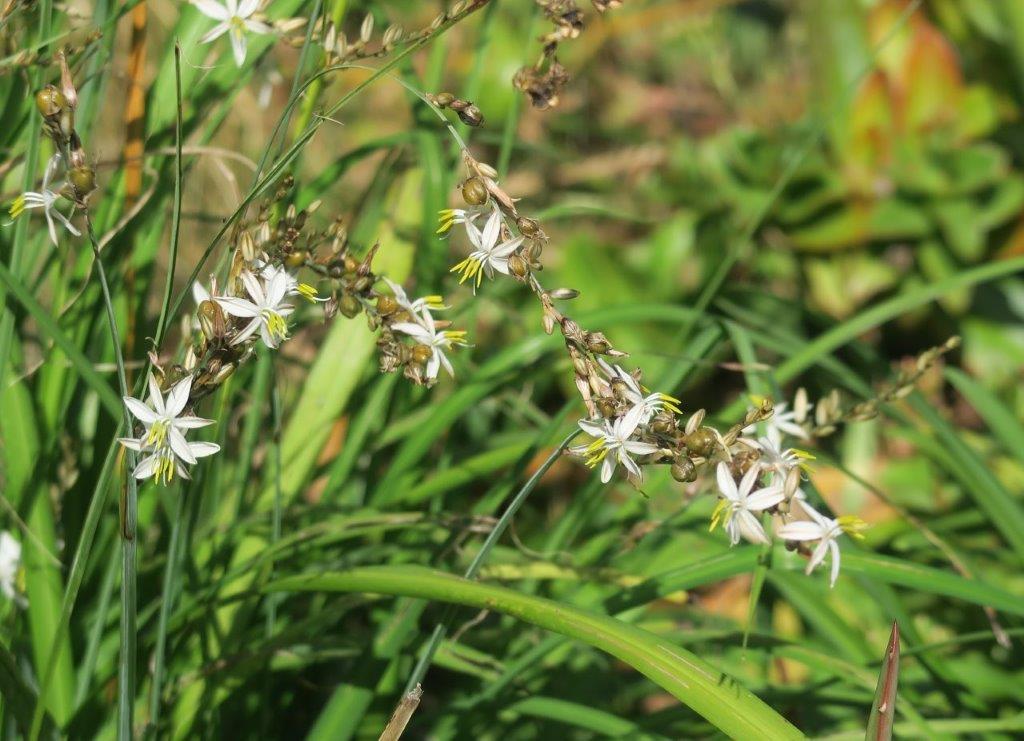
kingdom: Plantae
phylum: Tracheophyta
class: Liliopsida
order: Asparagales
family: Asparagaceae
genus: Chlorophytum
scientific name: Chlorophytum graminifolium
